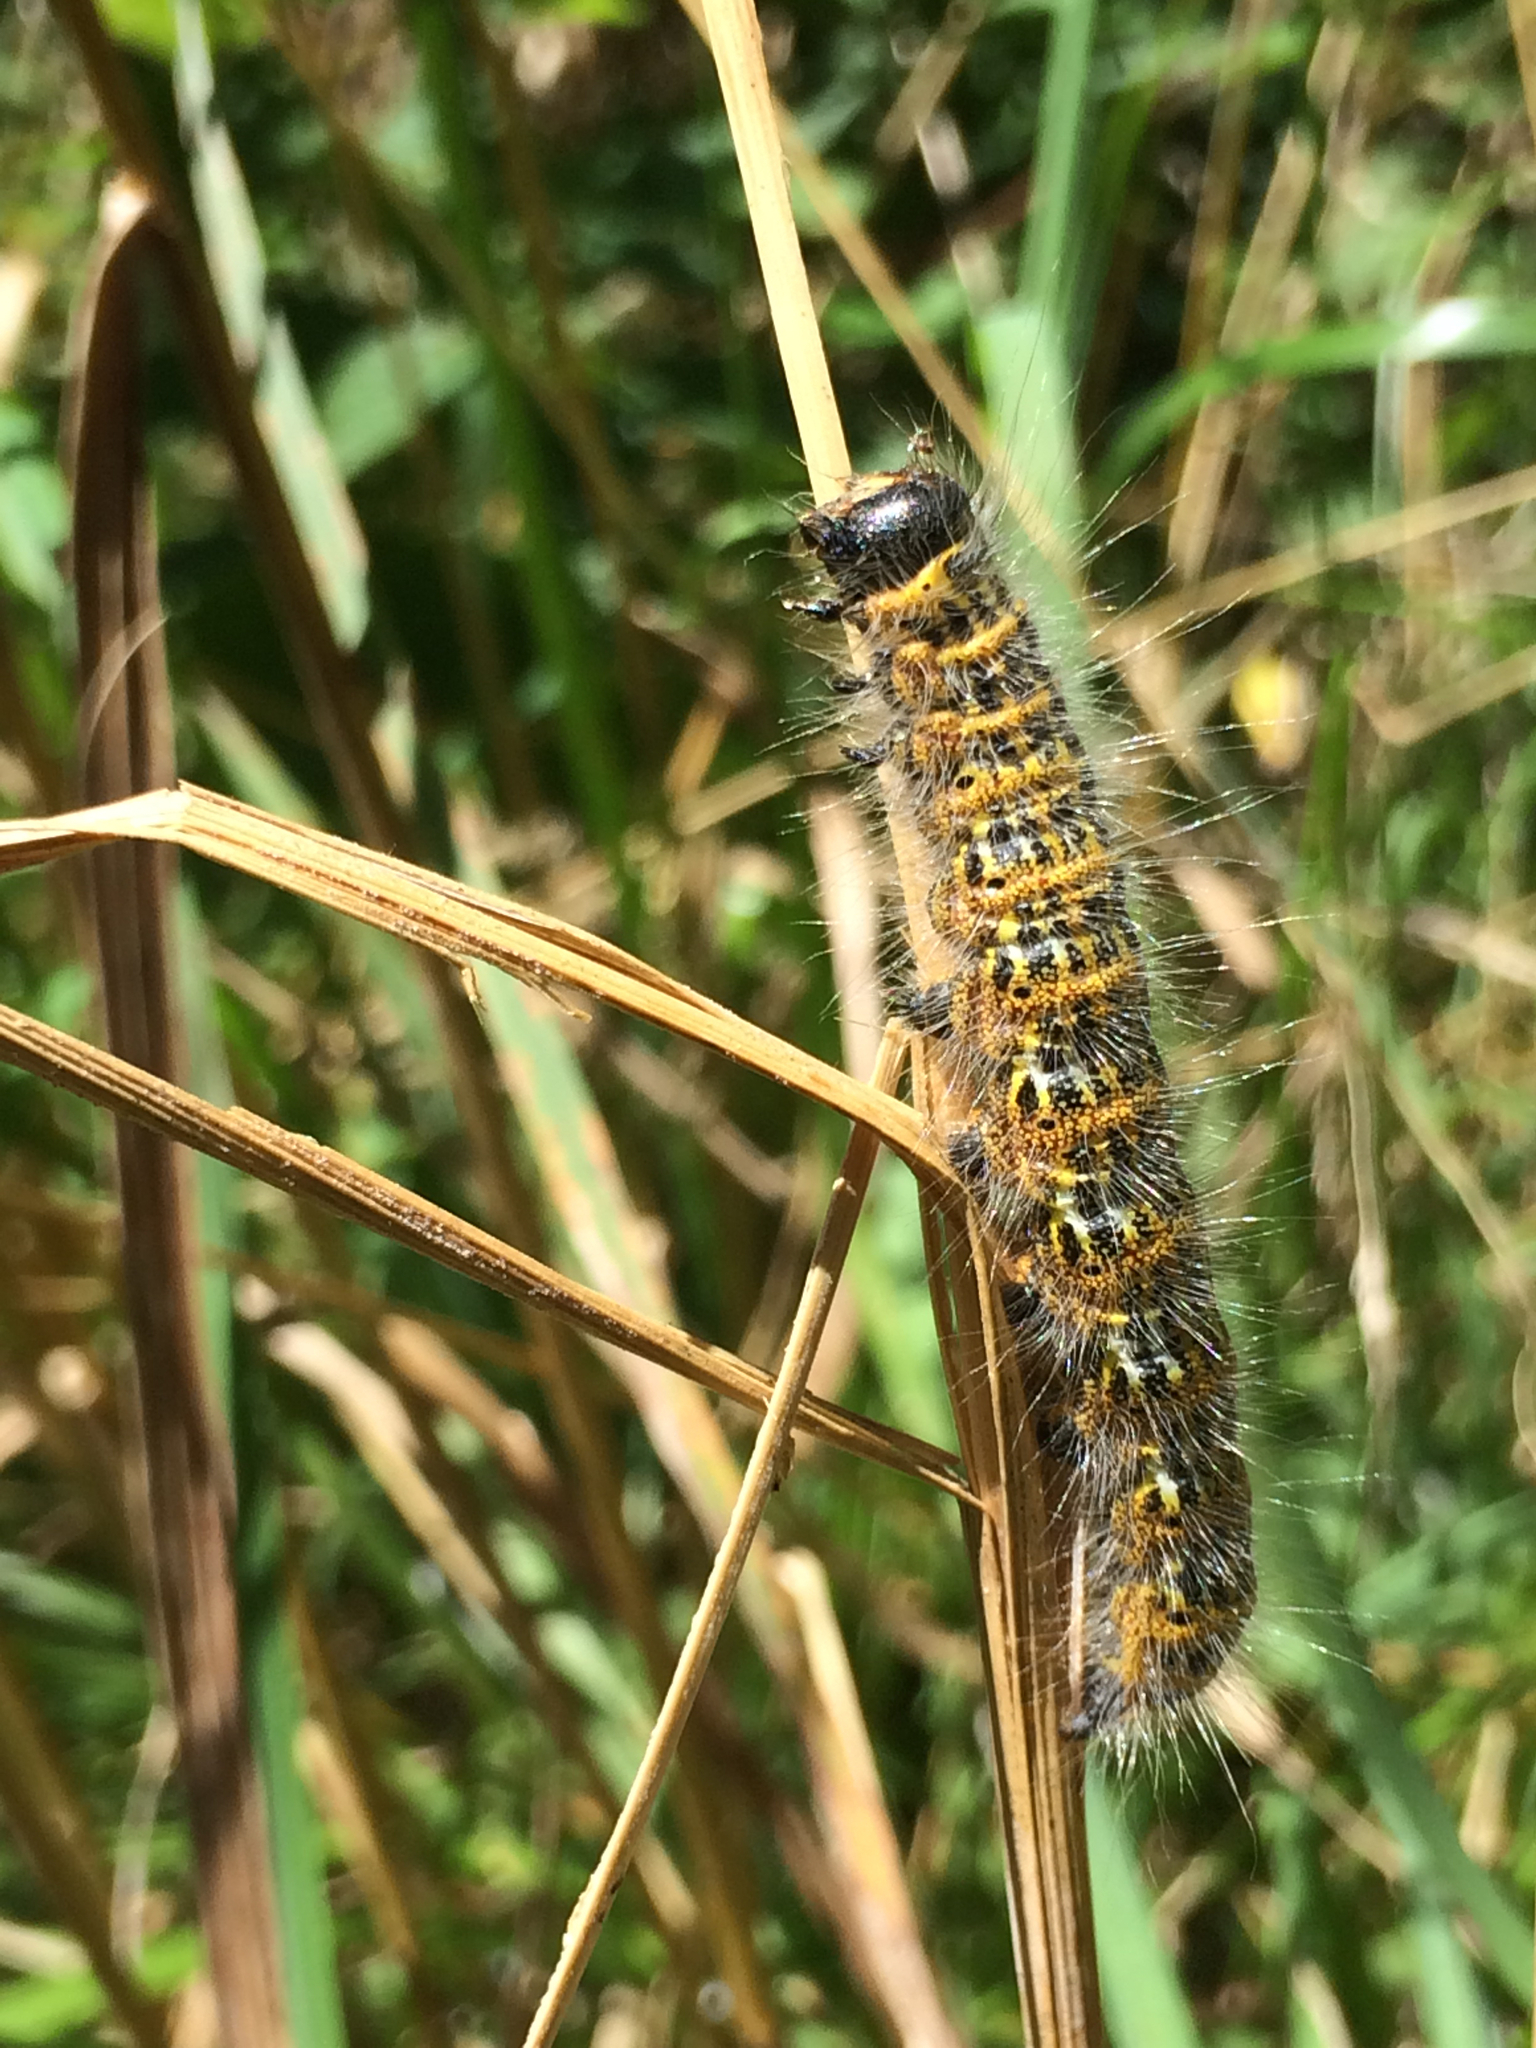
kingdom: Animalia
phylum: Arthropoda
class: Insecta
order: Lepidoptera
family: Notodontidae
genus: Phalera
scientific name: Phalera bucephala
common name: Buff-tip
